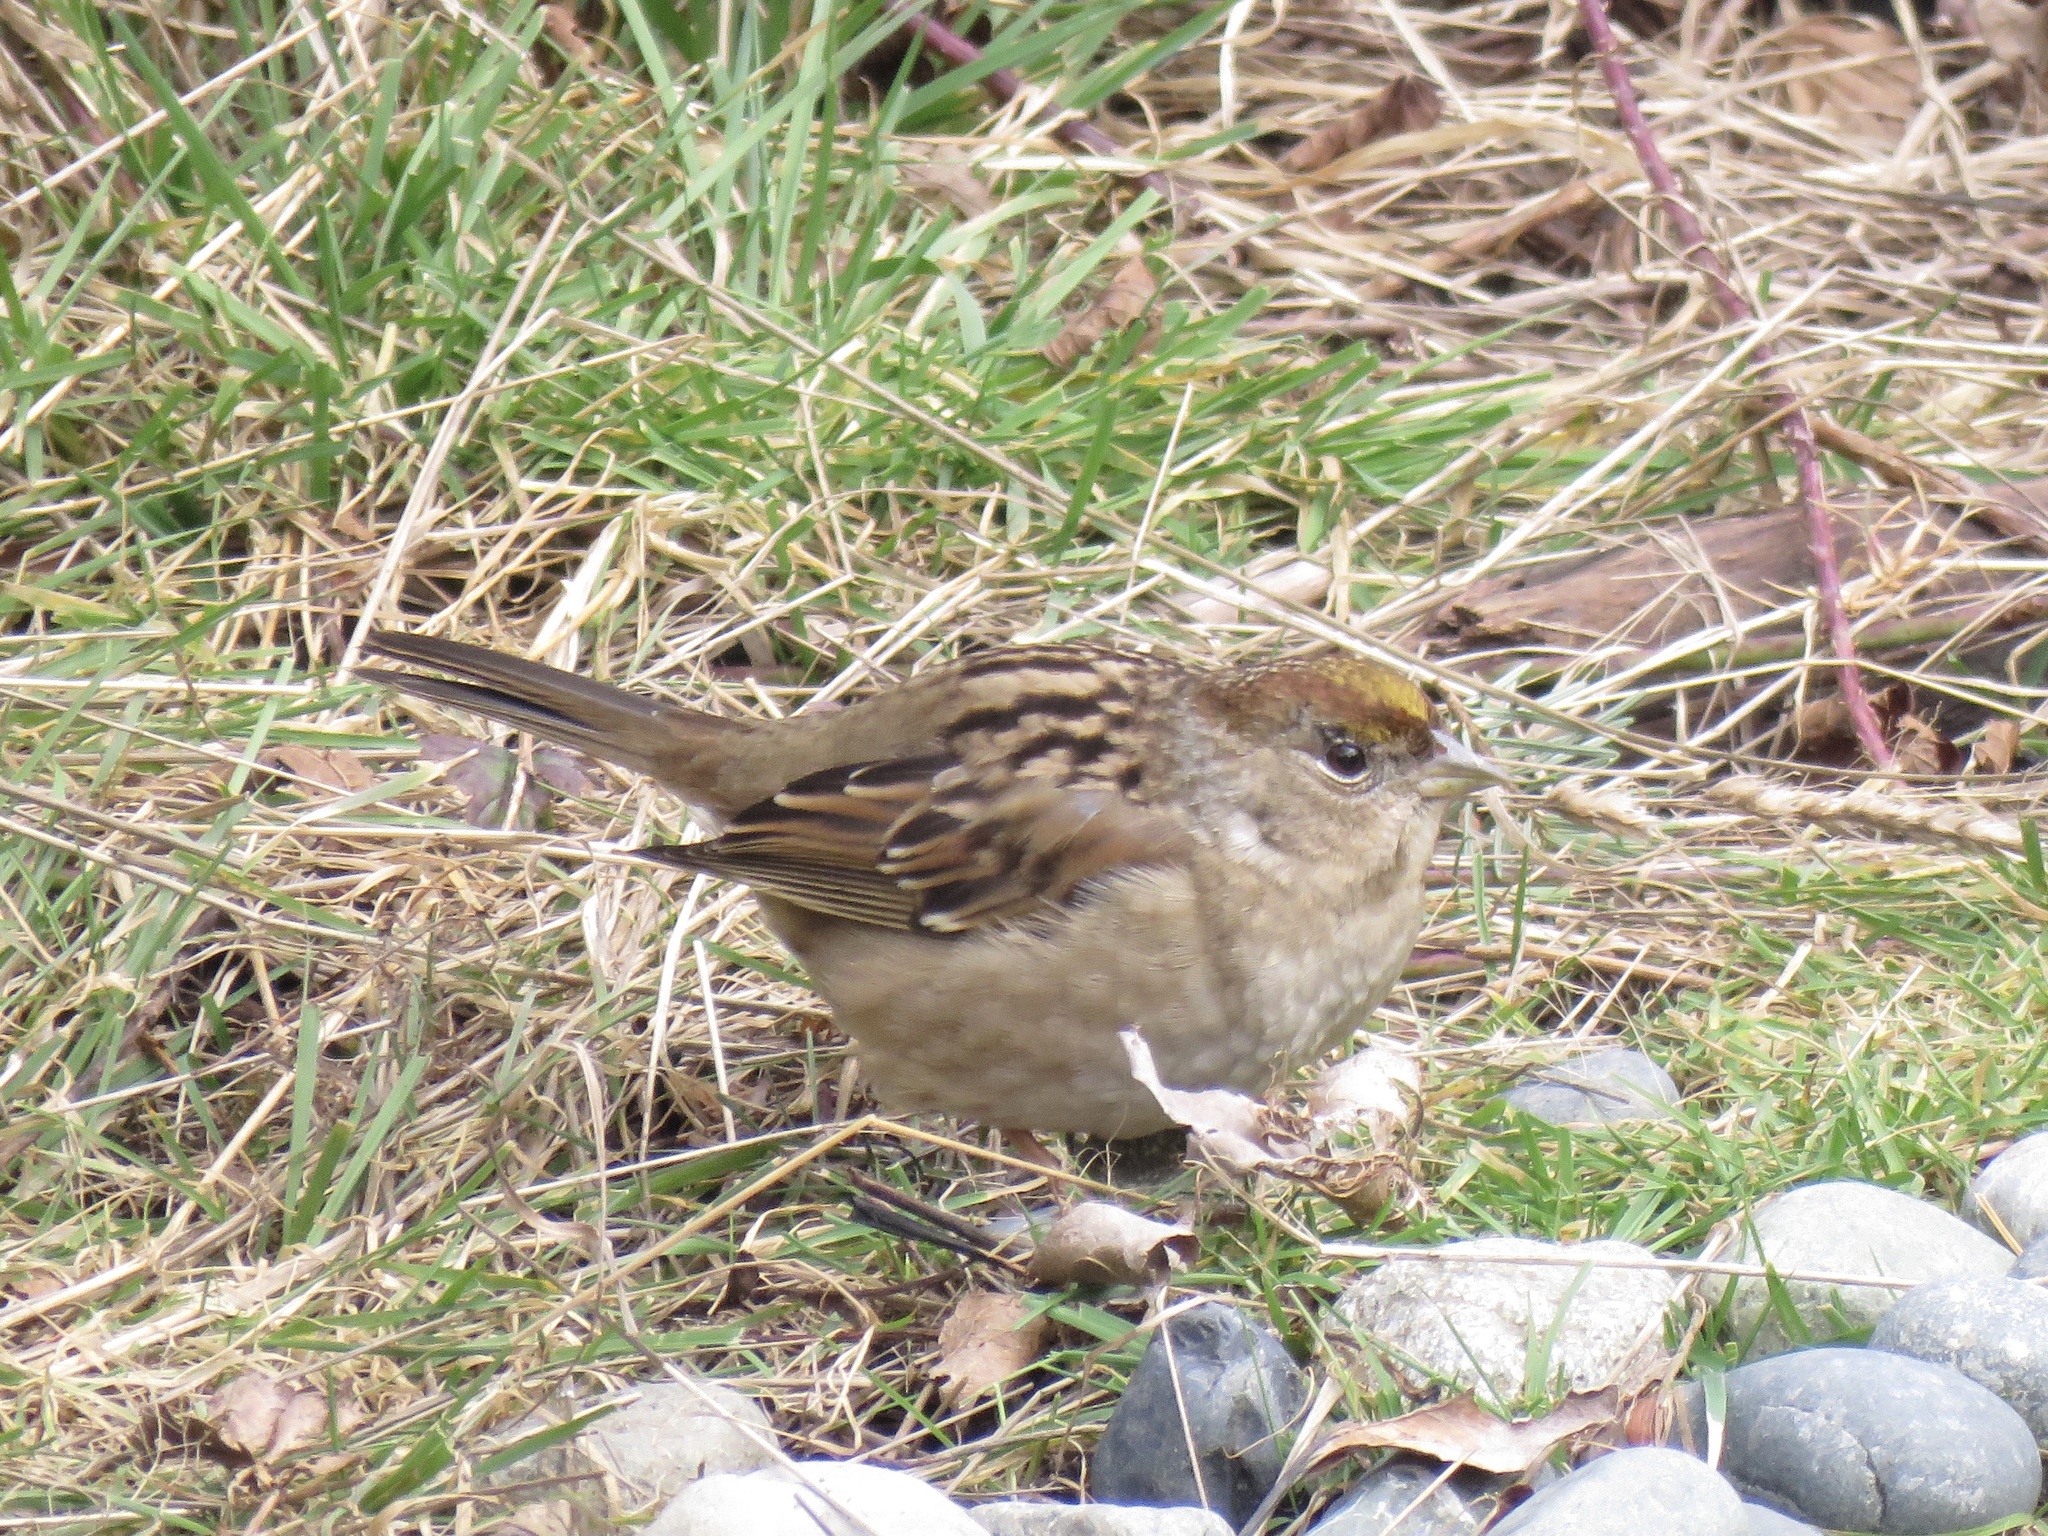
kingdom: Animalia
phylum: Chordata
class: Aves
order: Passeriformes
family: Passerellidae
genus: Zonotrichia
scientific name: Zonotrichia atricapilla
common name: Golden-crowned sparrow
